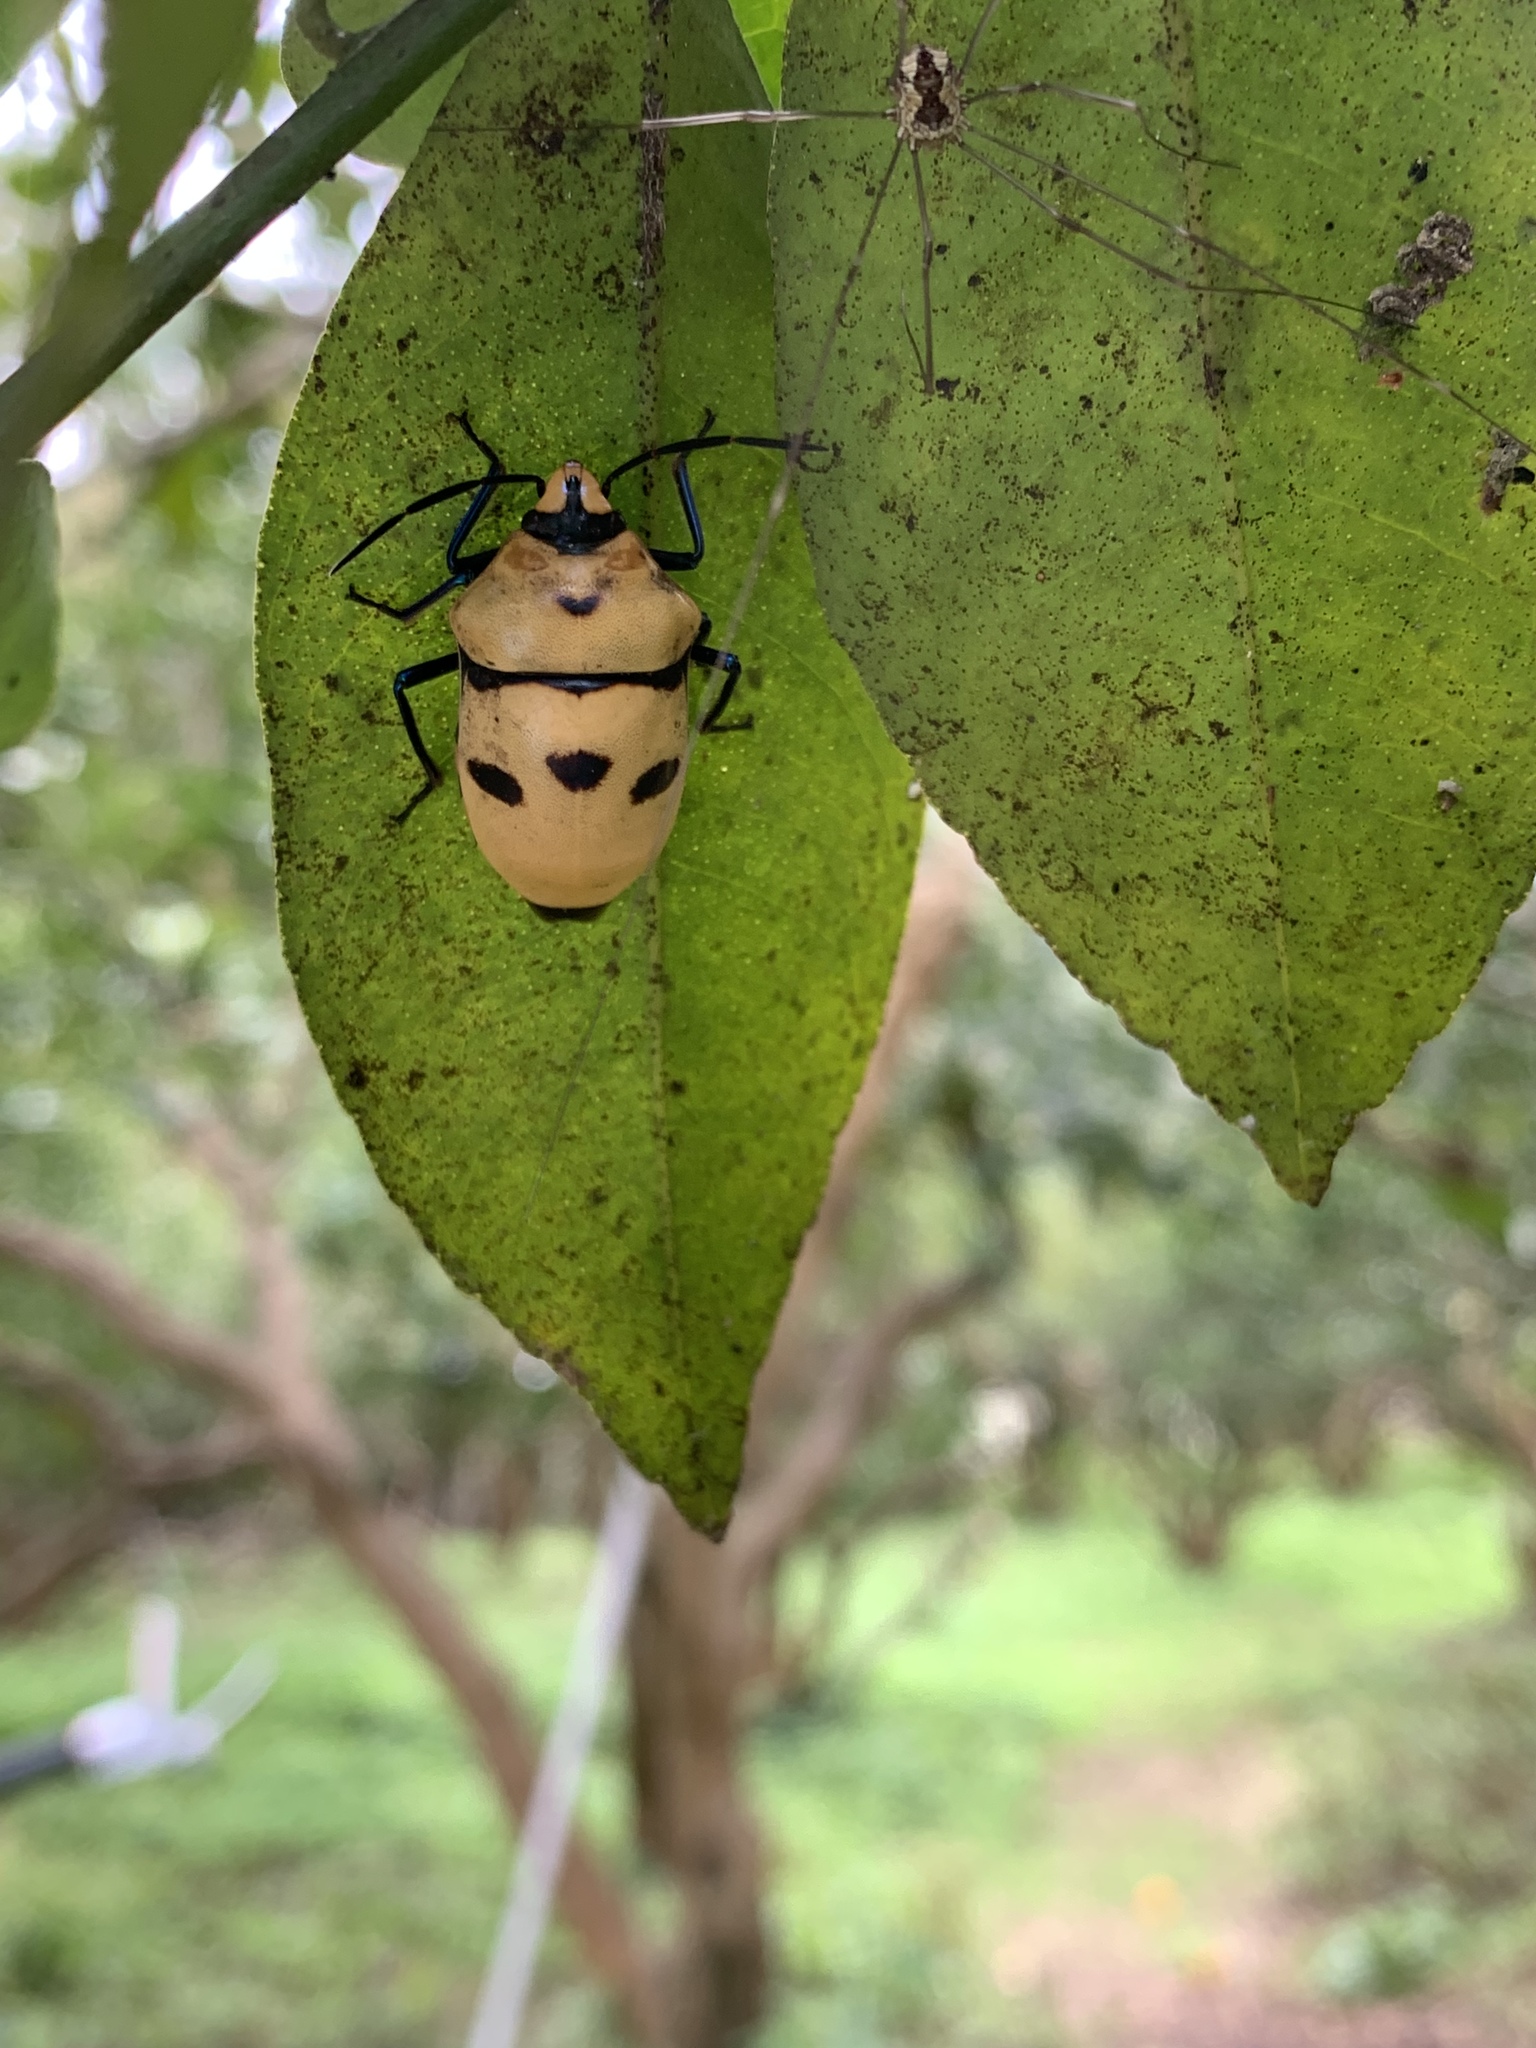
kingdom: Animalia
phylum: Arthropoda
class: Insecta
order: Hemiptera
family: Scutelleridae
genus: Eucorysses
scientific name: Eucorysses grandis
